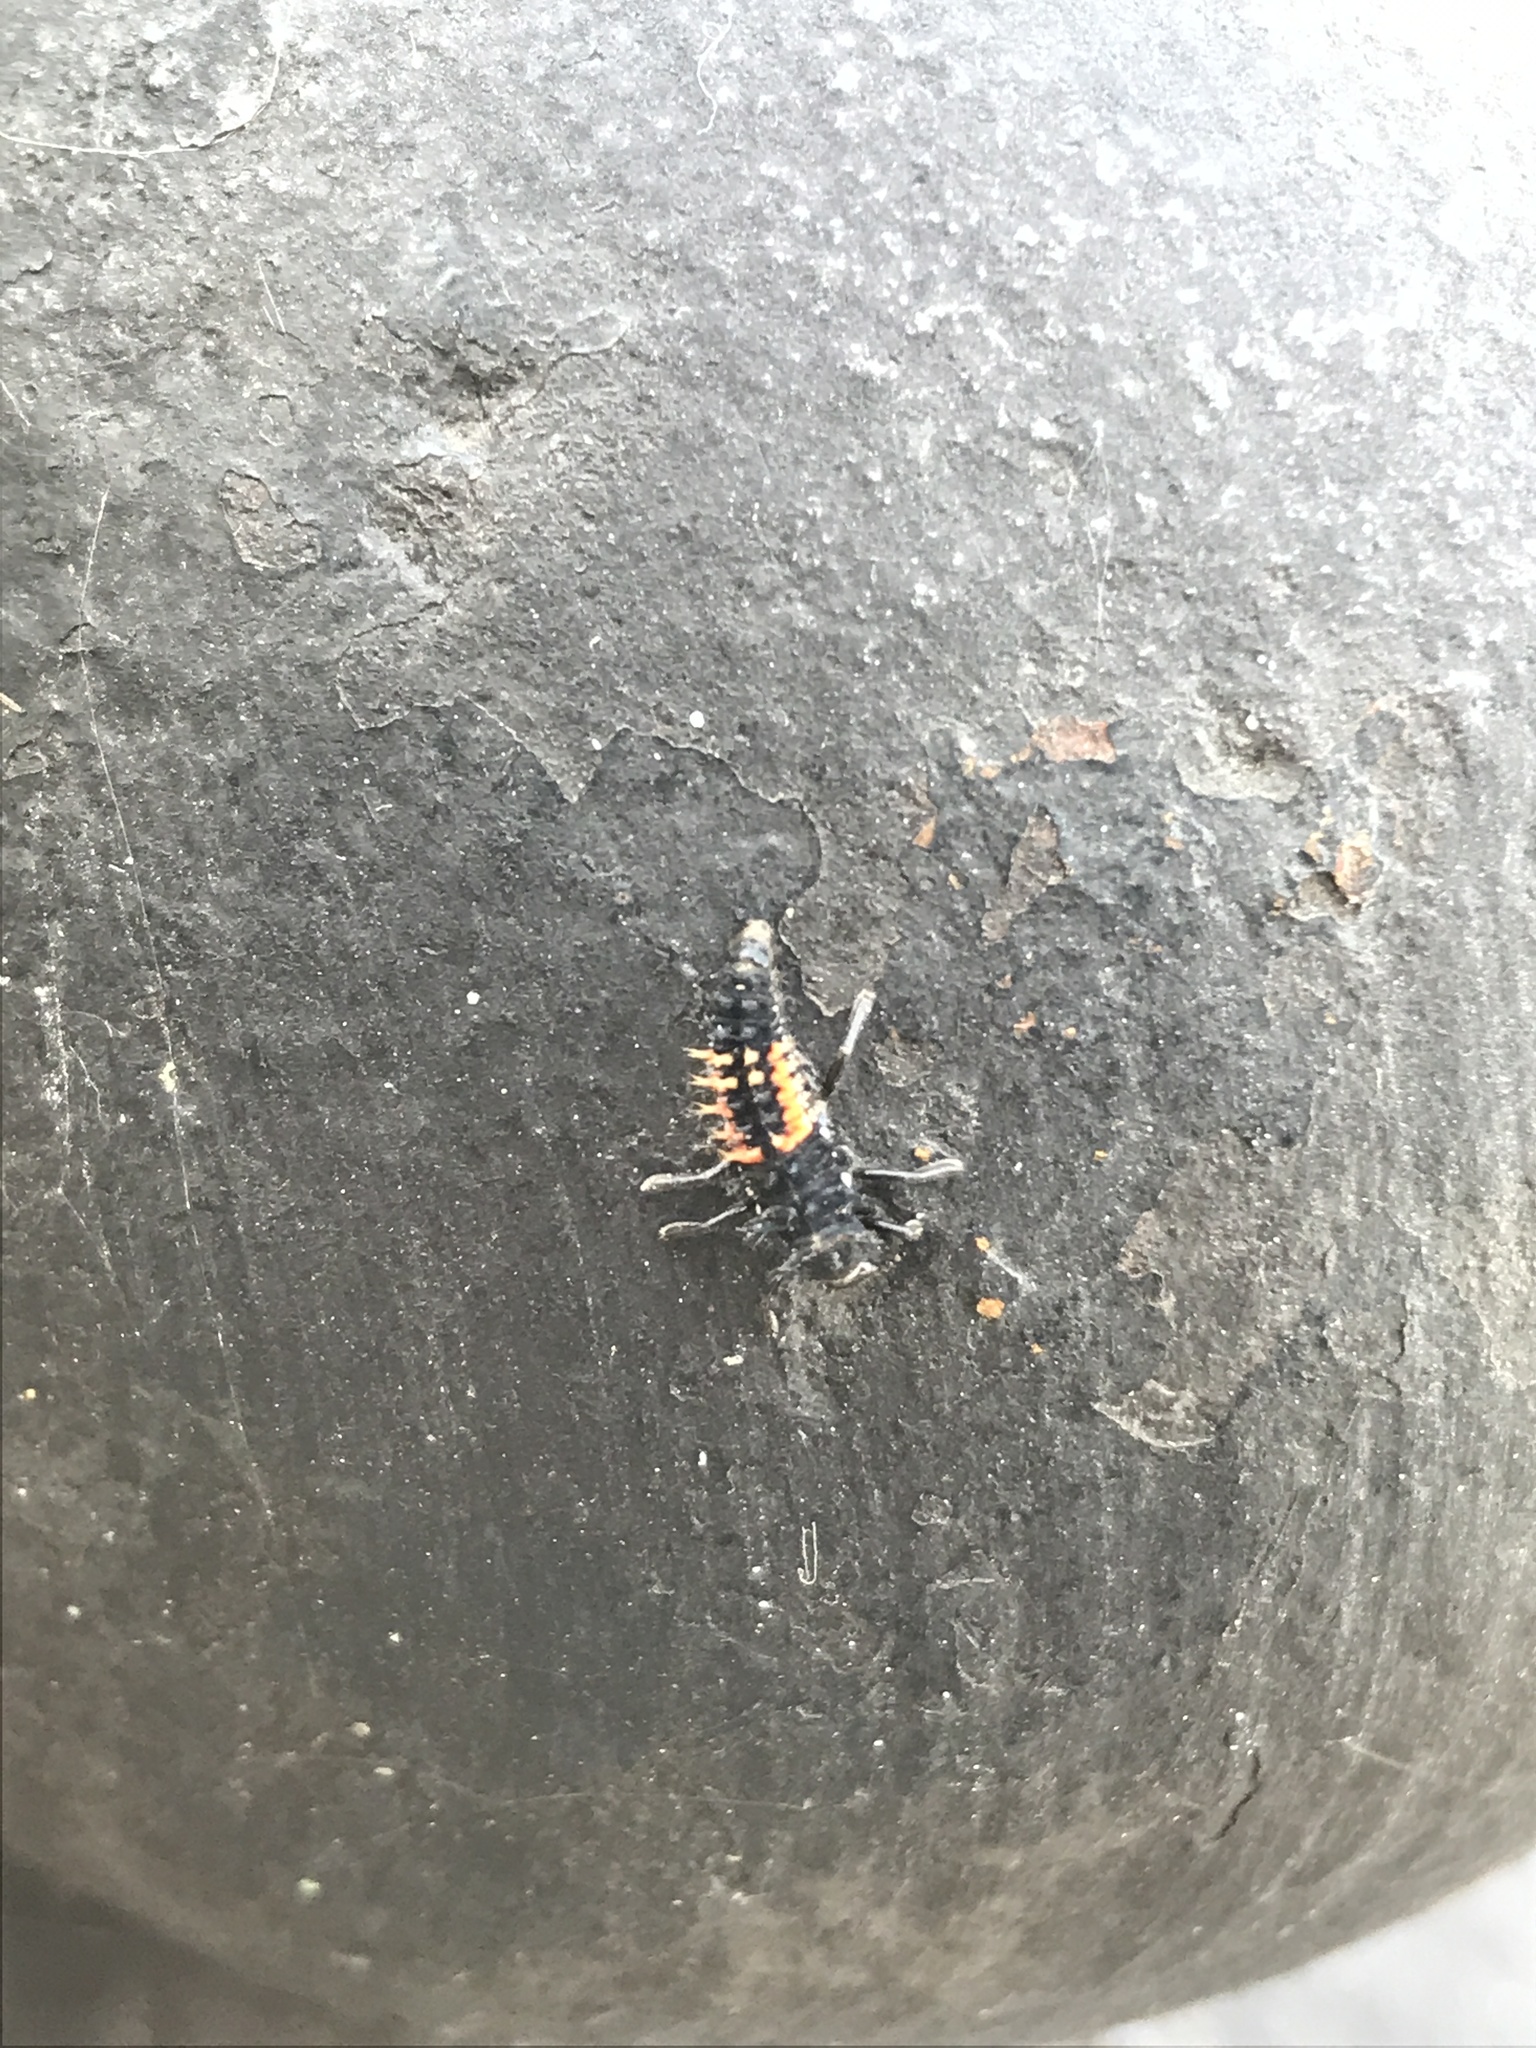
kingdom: Animalia
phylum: Arthropoda
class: Insecta
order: Coleoptera
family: Coccinellidae
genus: Harmonia
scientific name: Harmonia axyridis
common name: Harlequin ladybird
